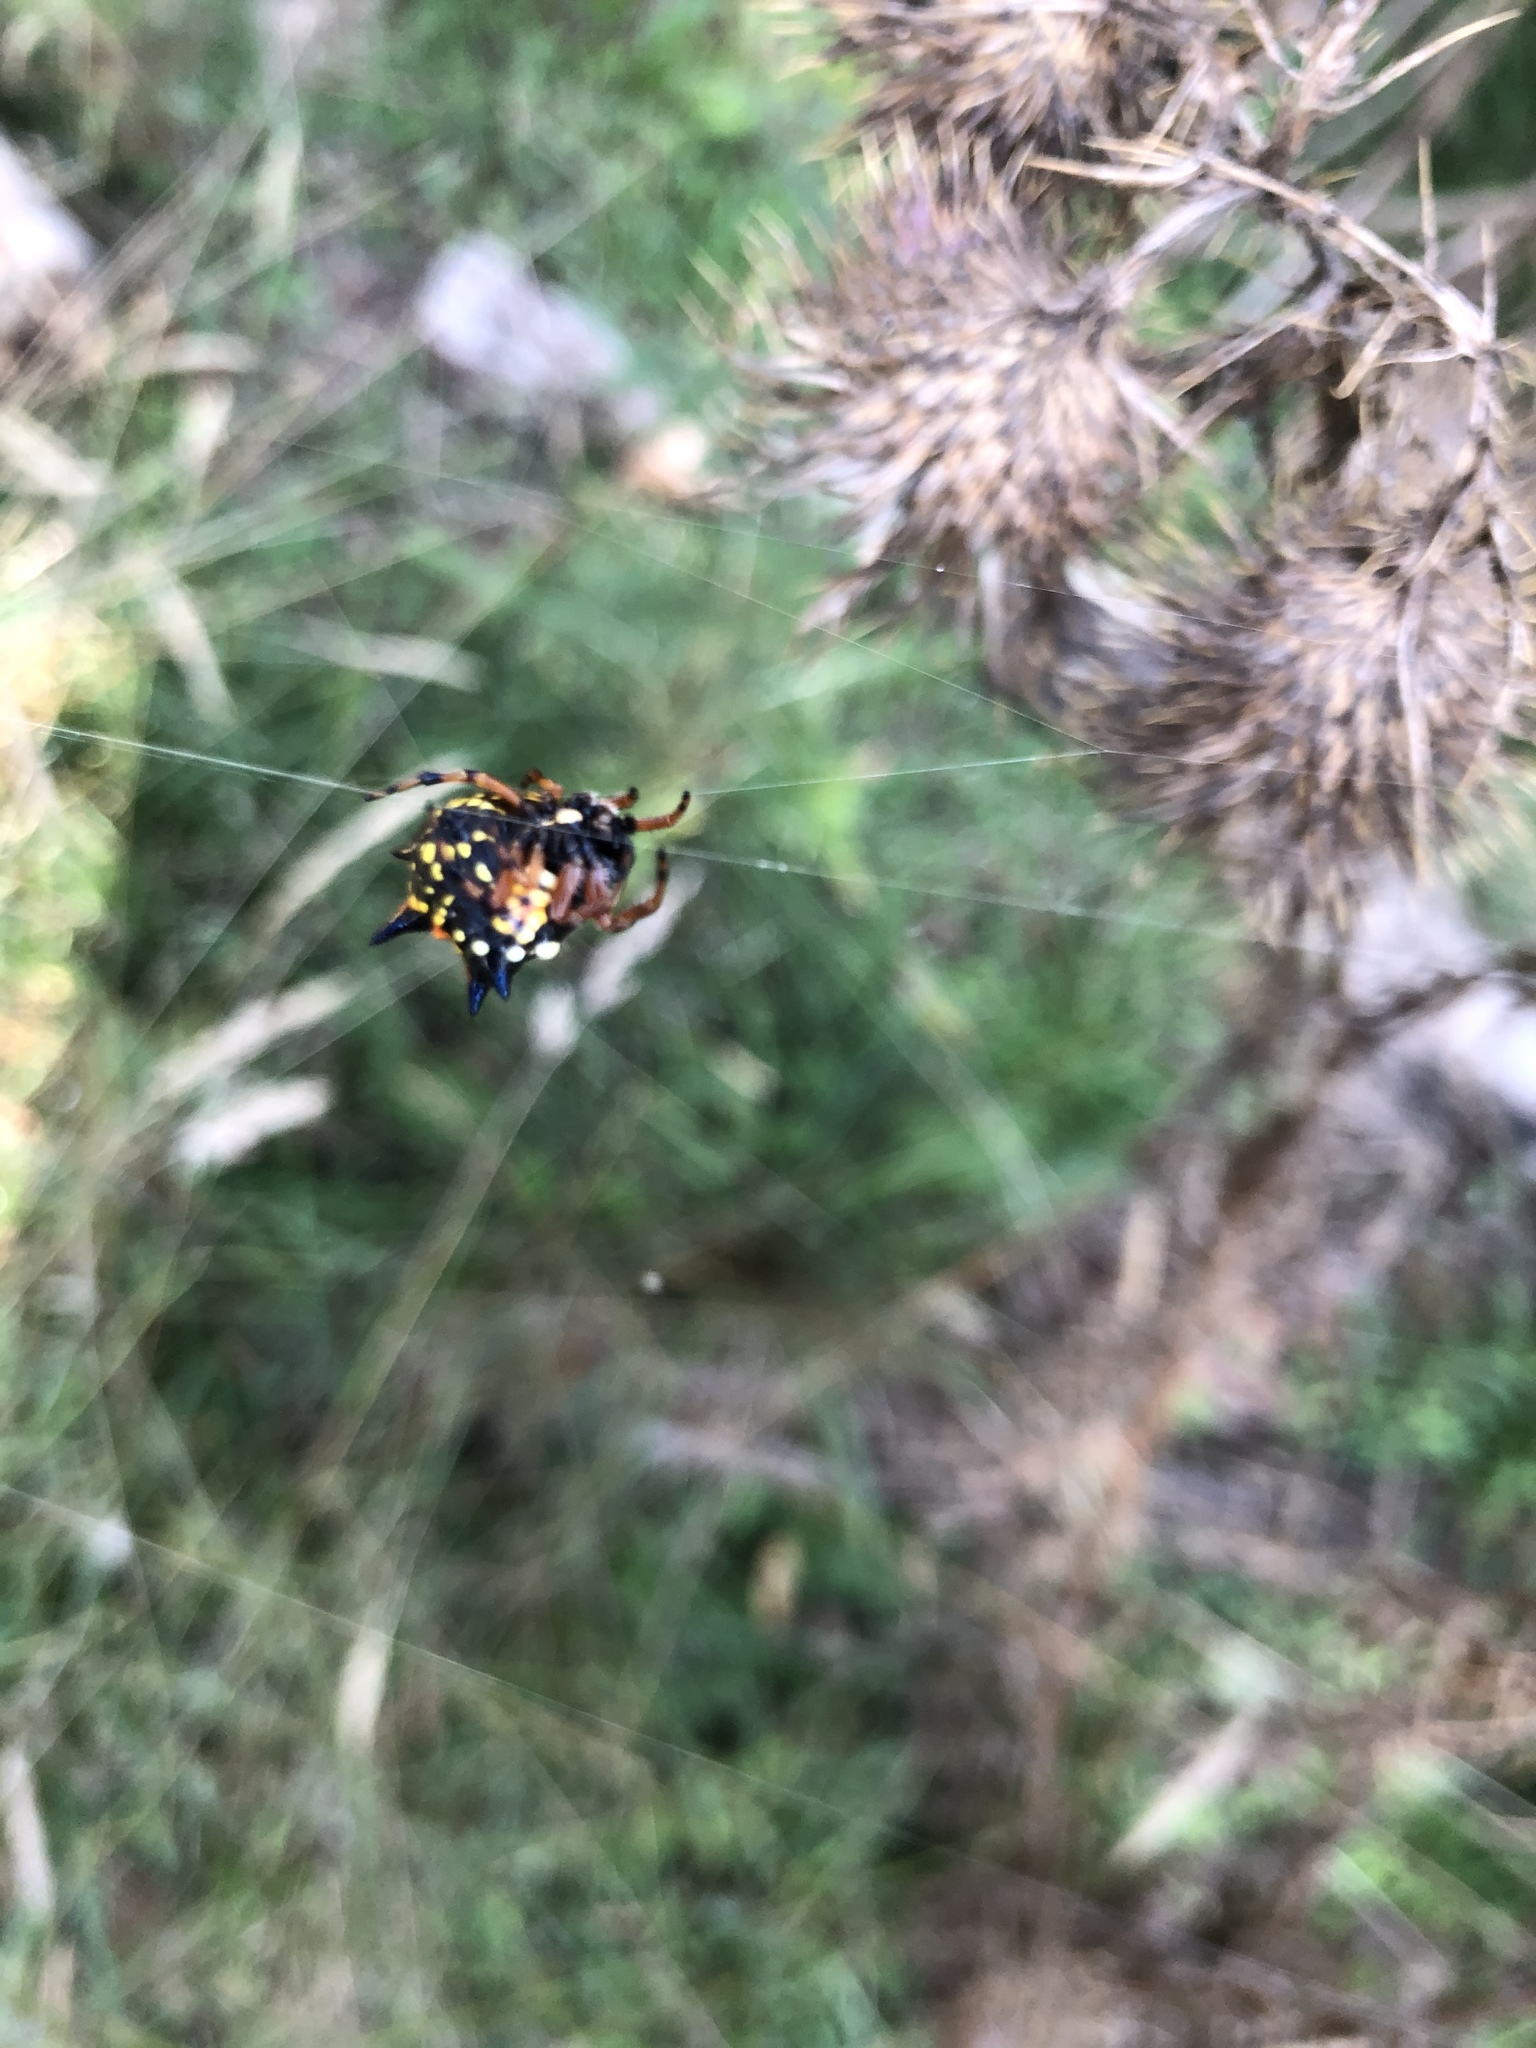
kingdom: Animalia
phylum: Arthropoda
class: Arachnida
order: Araneae
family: Araneidae
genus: Austracantha
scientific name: Austracantha minax
